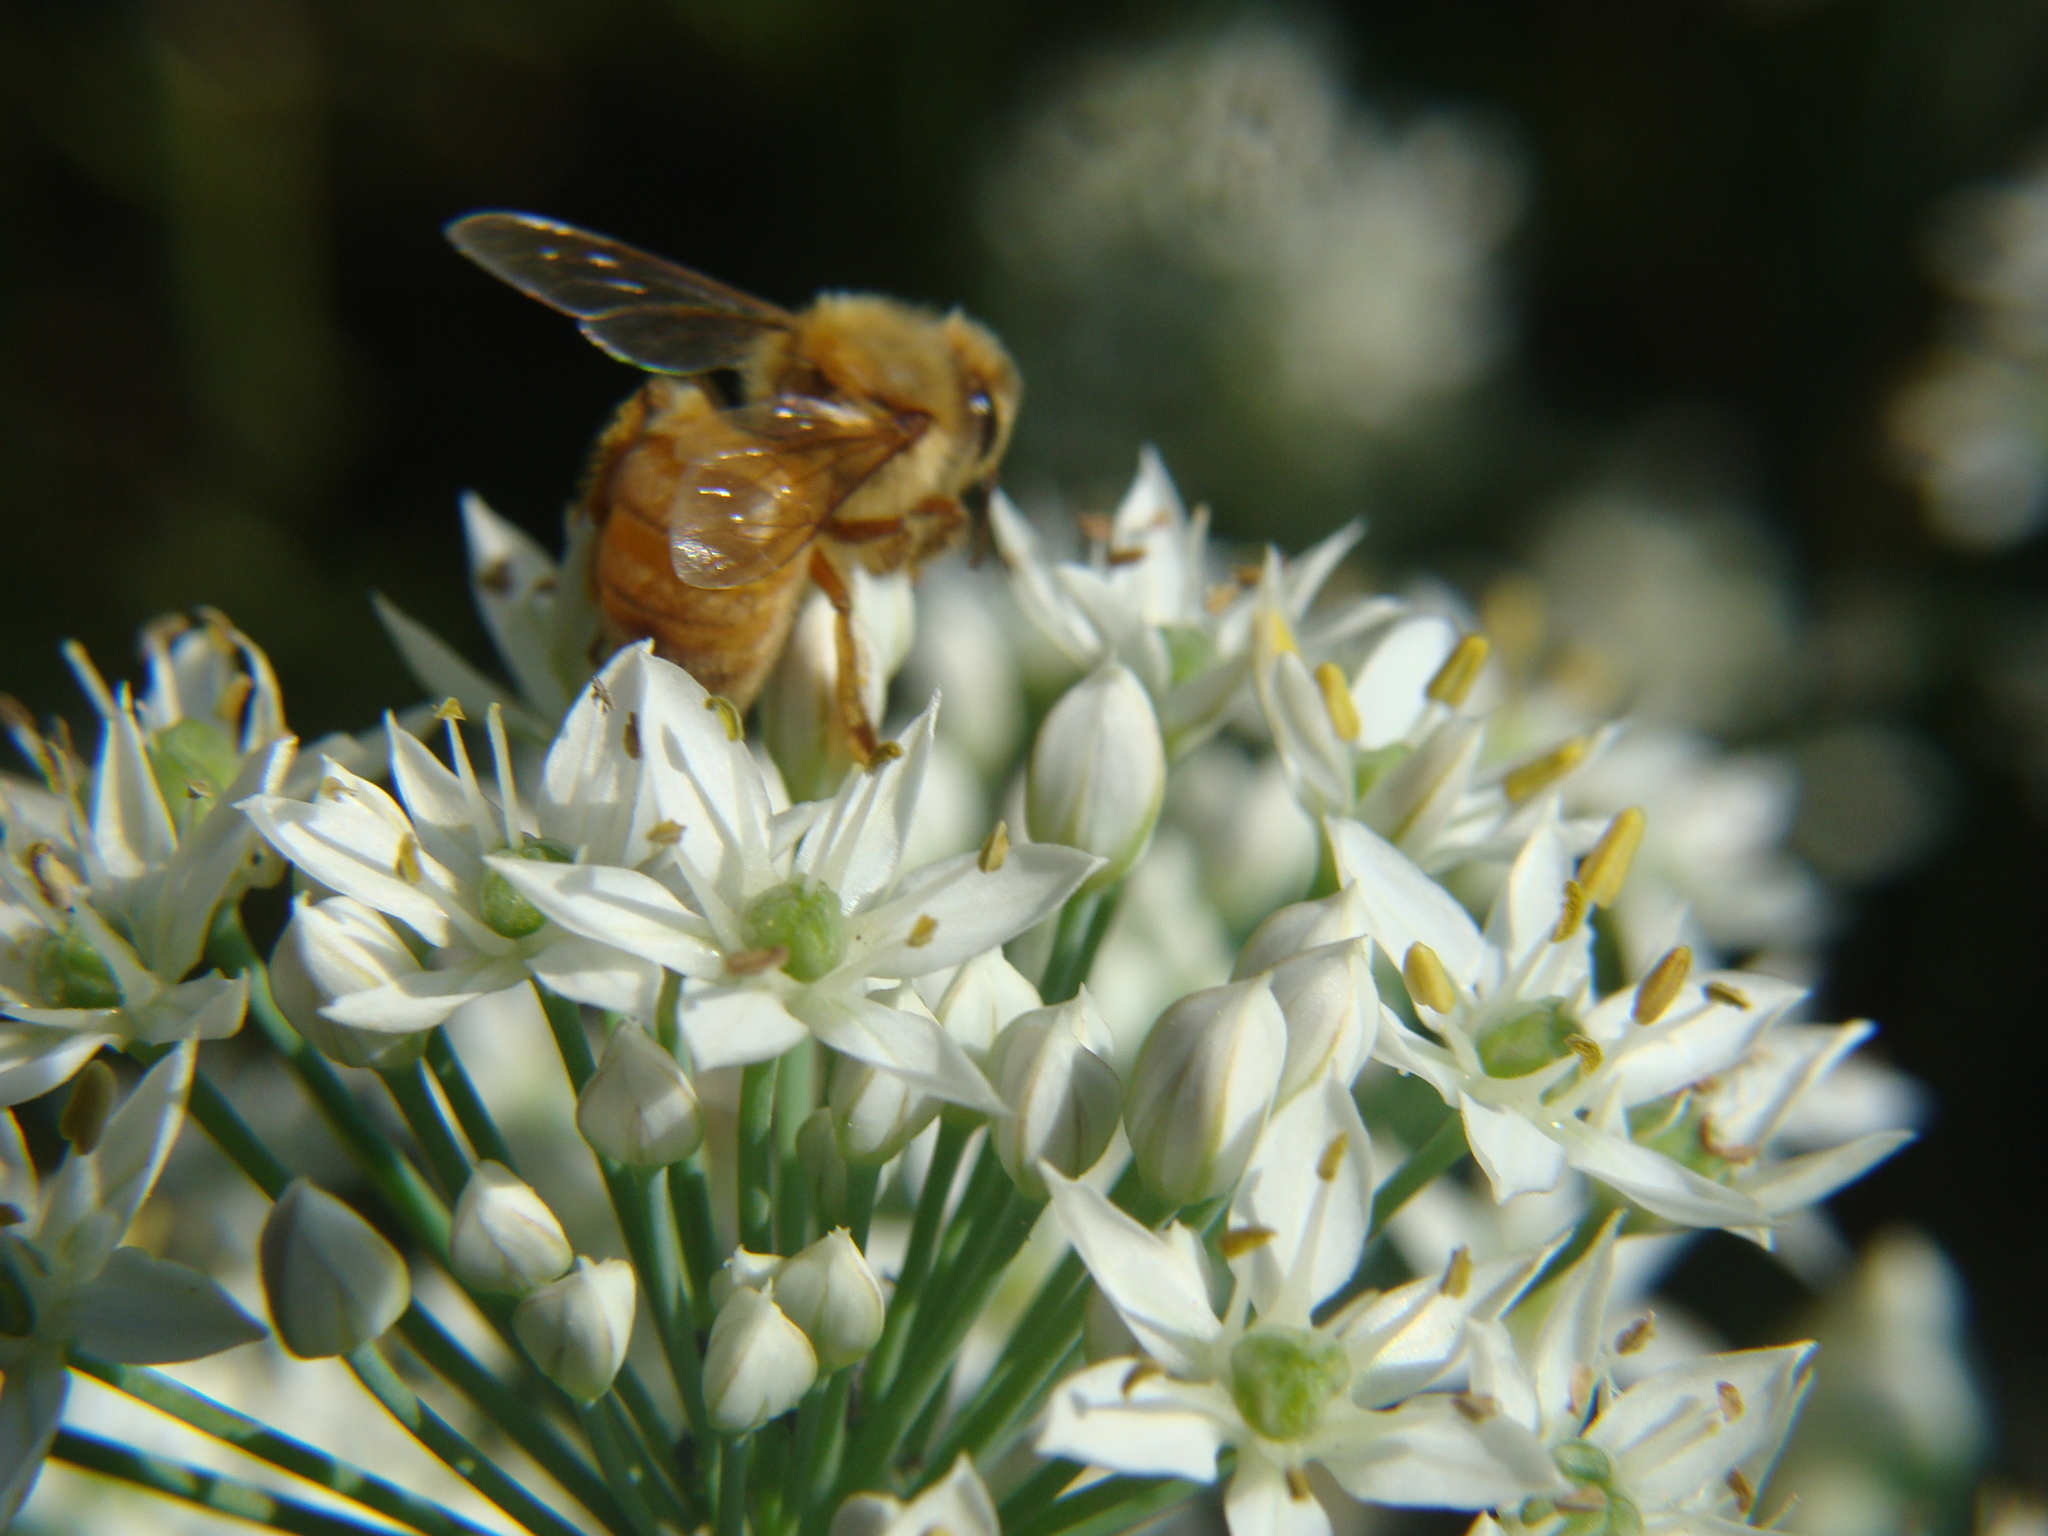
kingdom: Animalia
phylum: Arthropoda
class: Insecta
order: Hymenoptera
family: Apidae
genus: Apis
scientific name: Apis mellifera
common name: Honey bee
